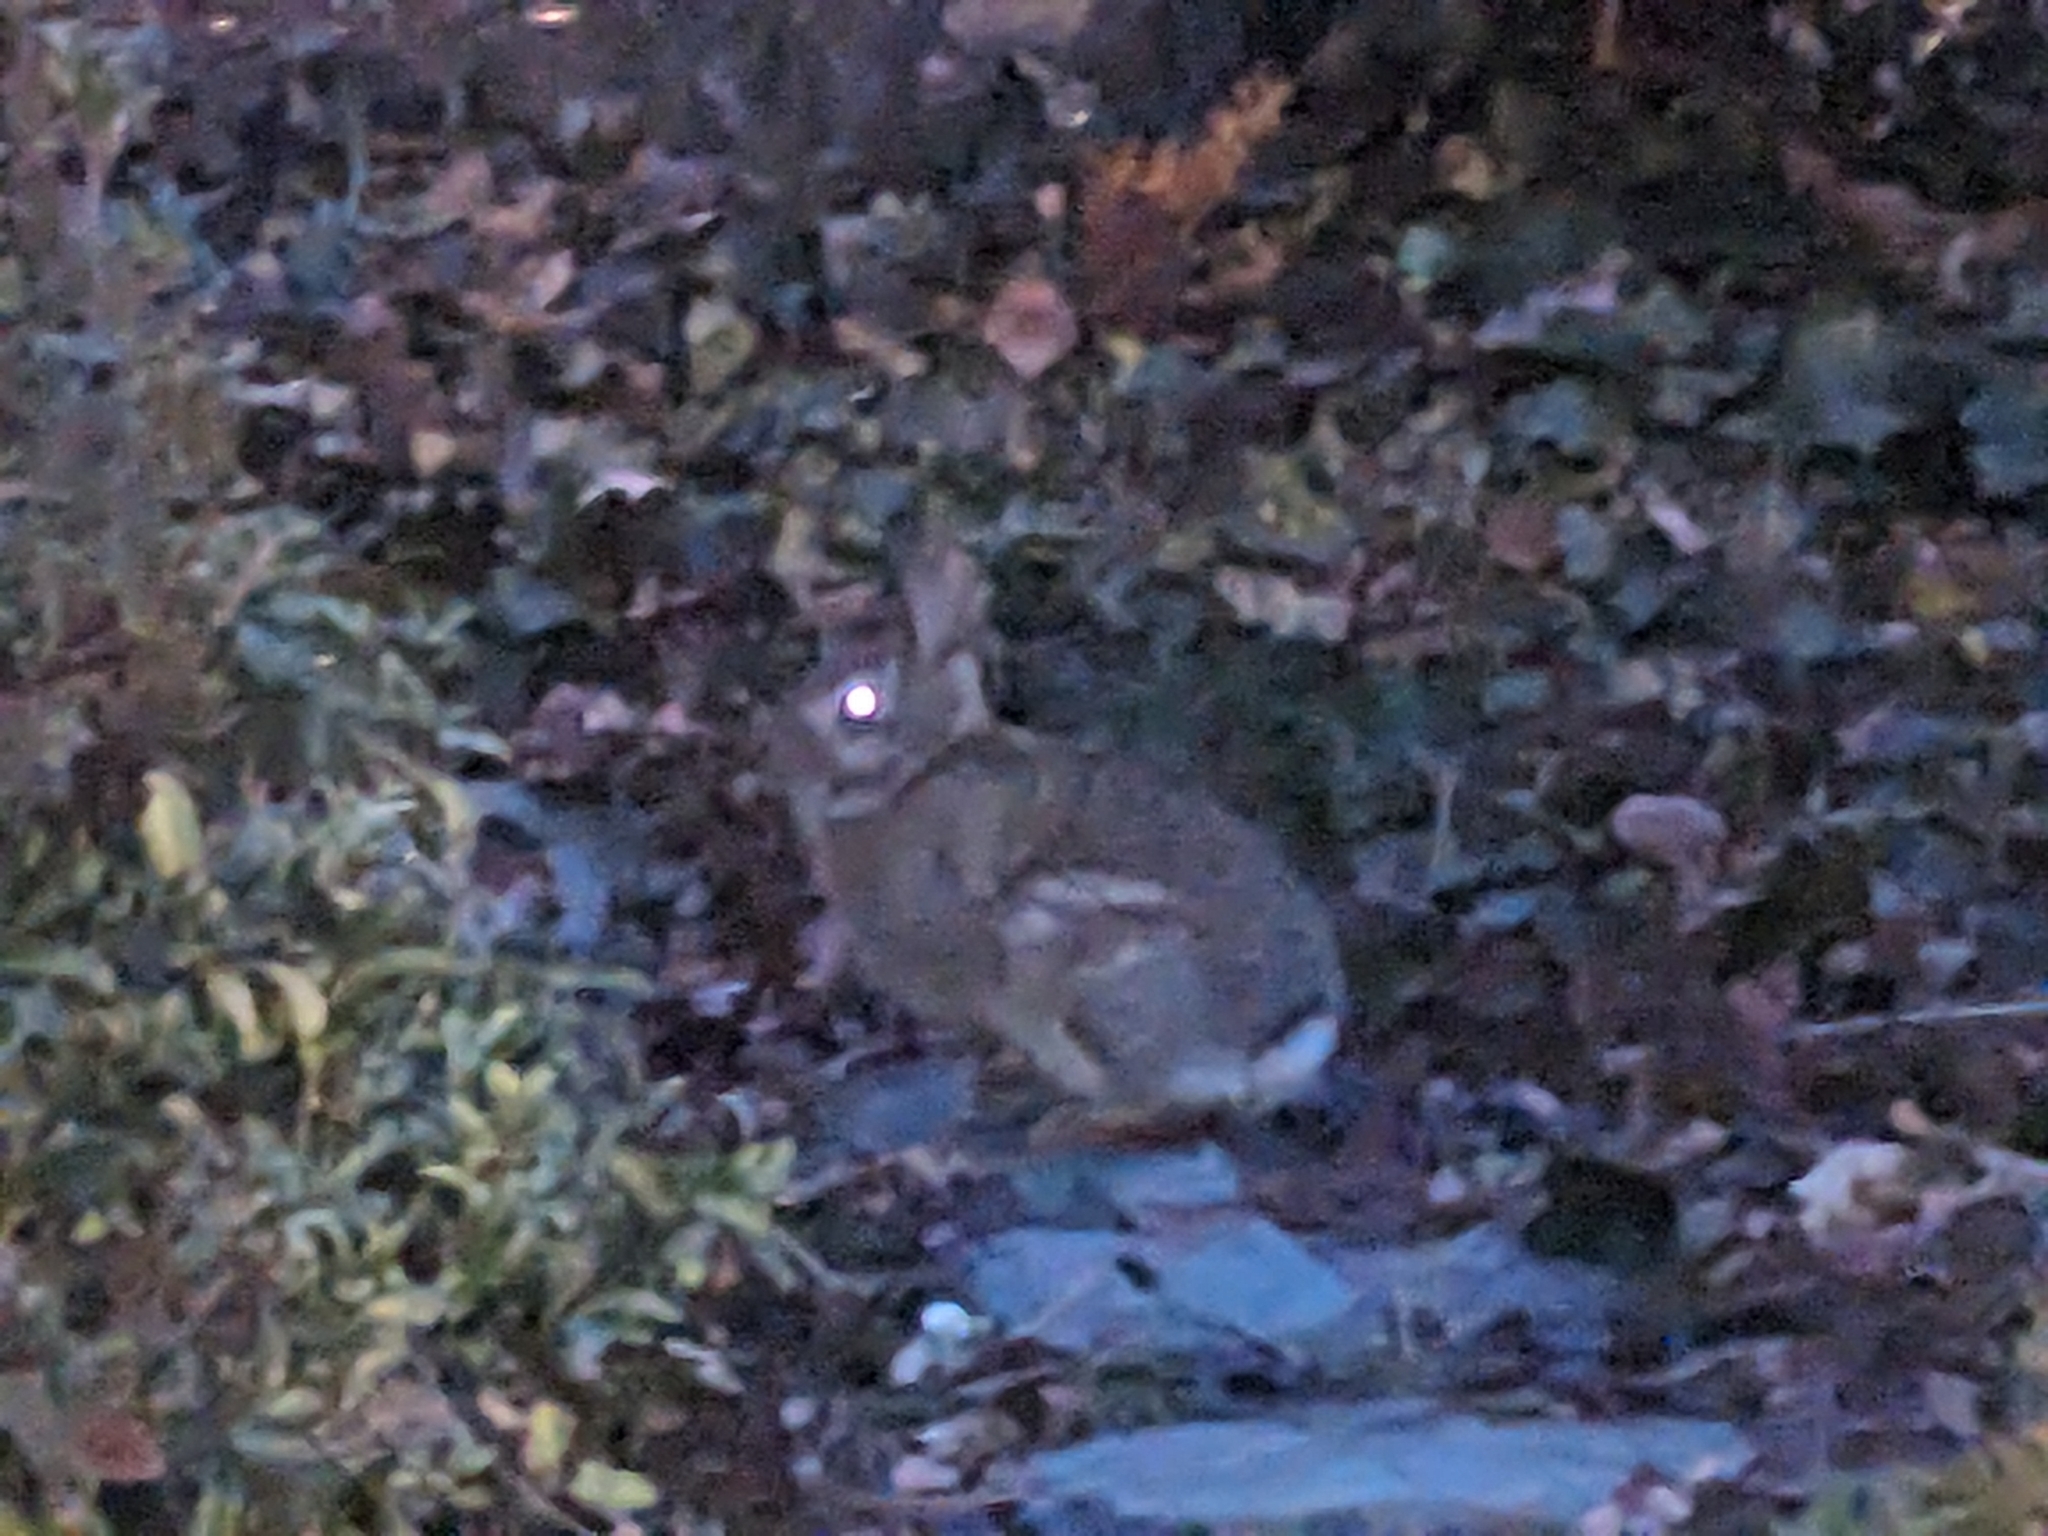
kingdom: Animalia
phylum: Chordata
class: Mammalia
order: Lagomorpha
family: Leporidae
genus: Sylvilagus
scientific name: Sylvilagus floridanus
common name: Eastern cottontail
